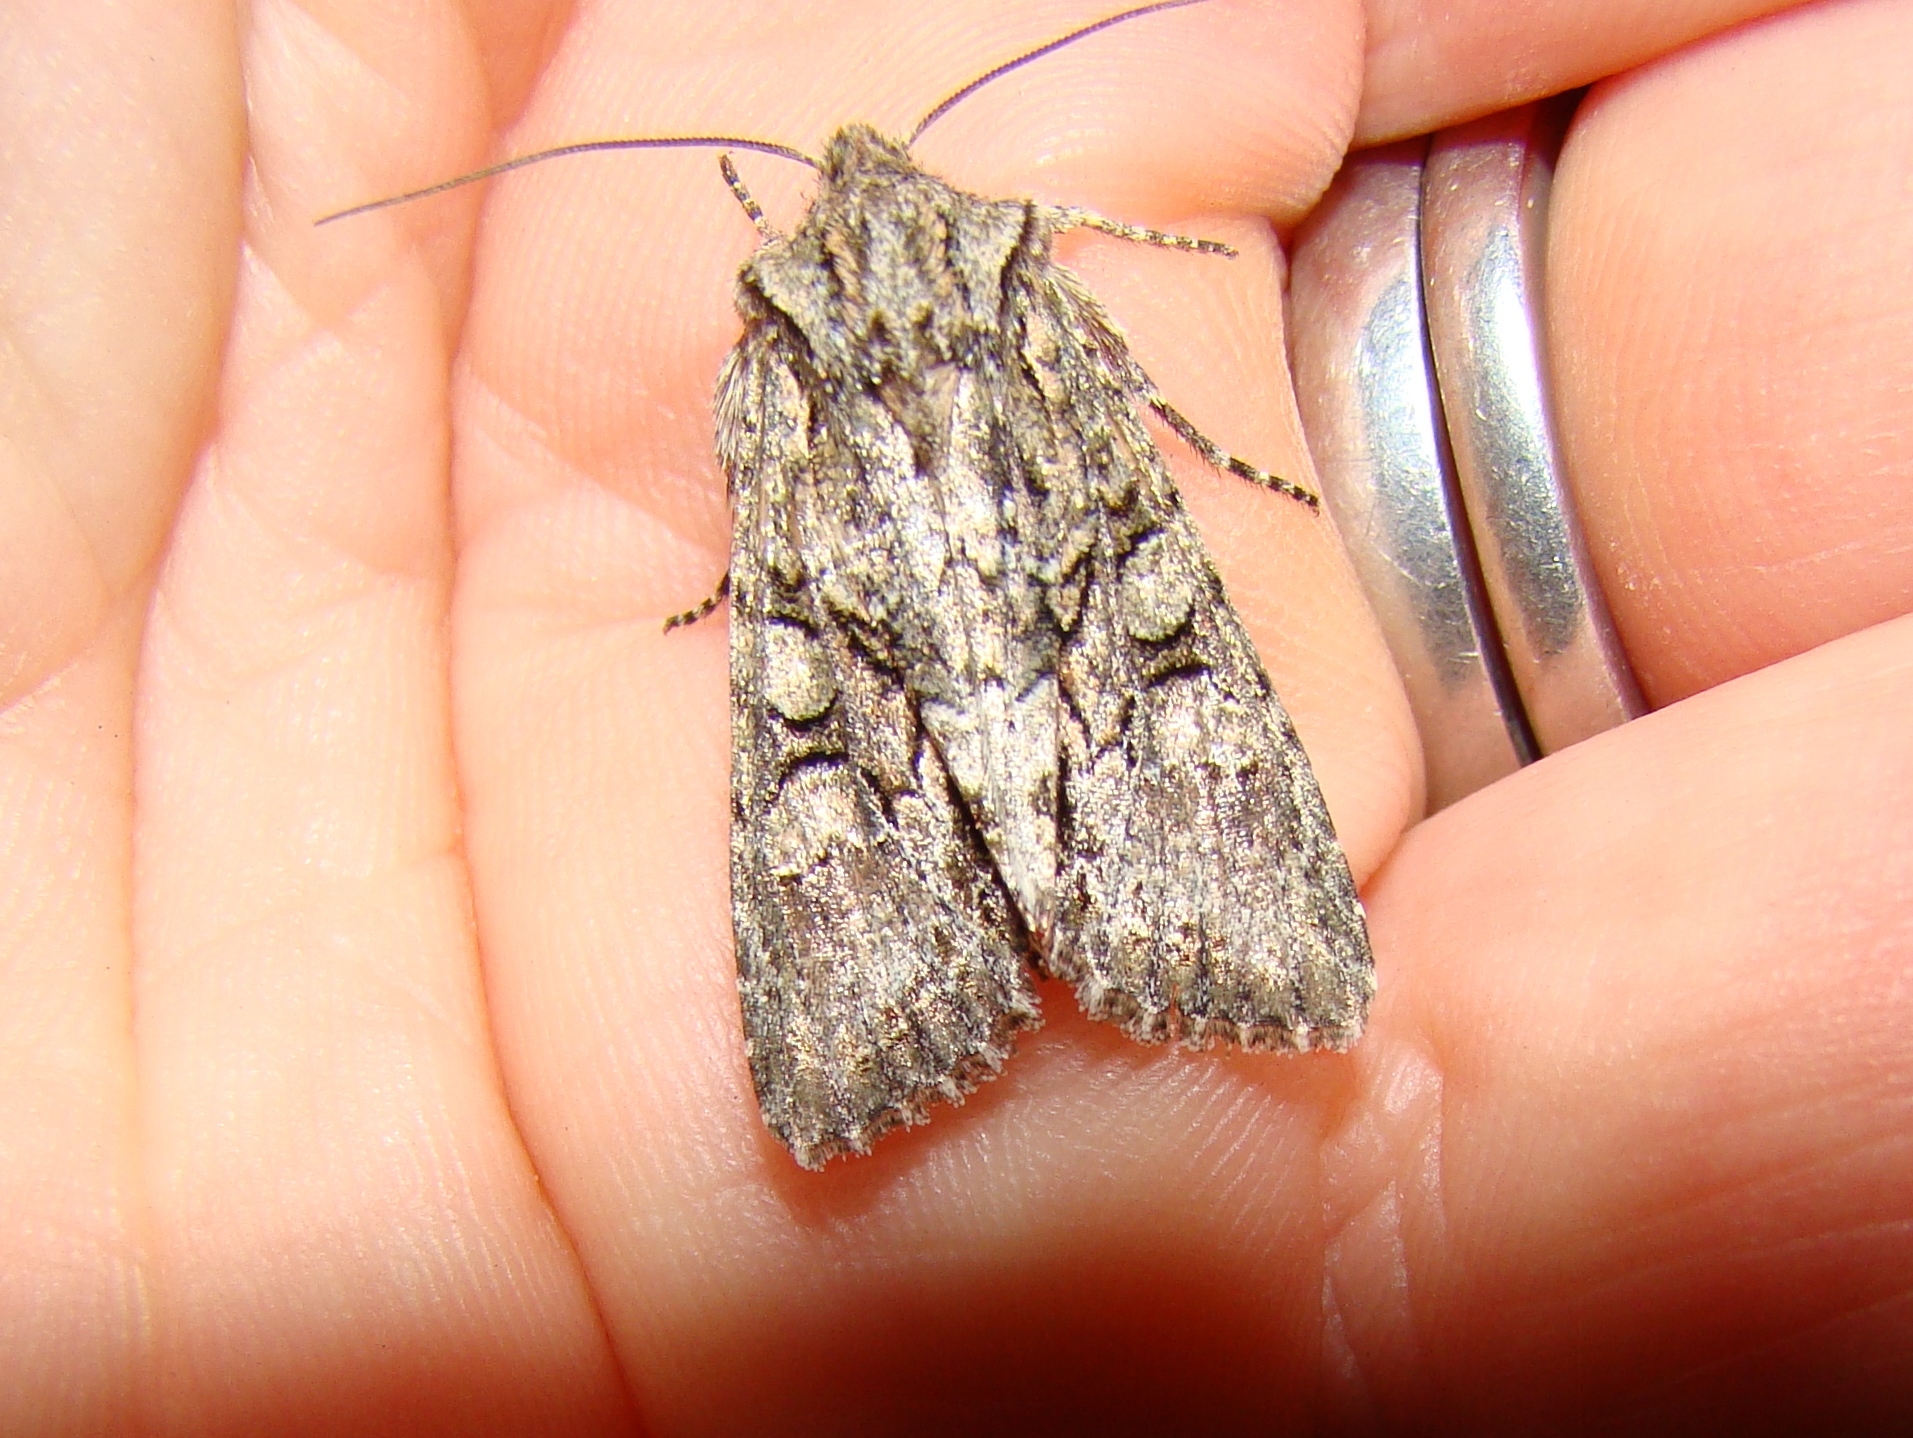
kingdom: Animalia
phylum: Arthropoda
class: Insecta
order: Lepidoptera
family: Noctuidae
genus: Ichneutica
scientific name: Ichneutica mutans
